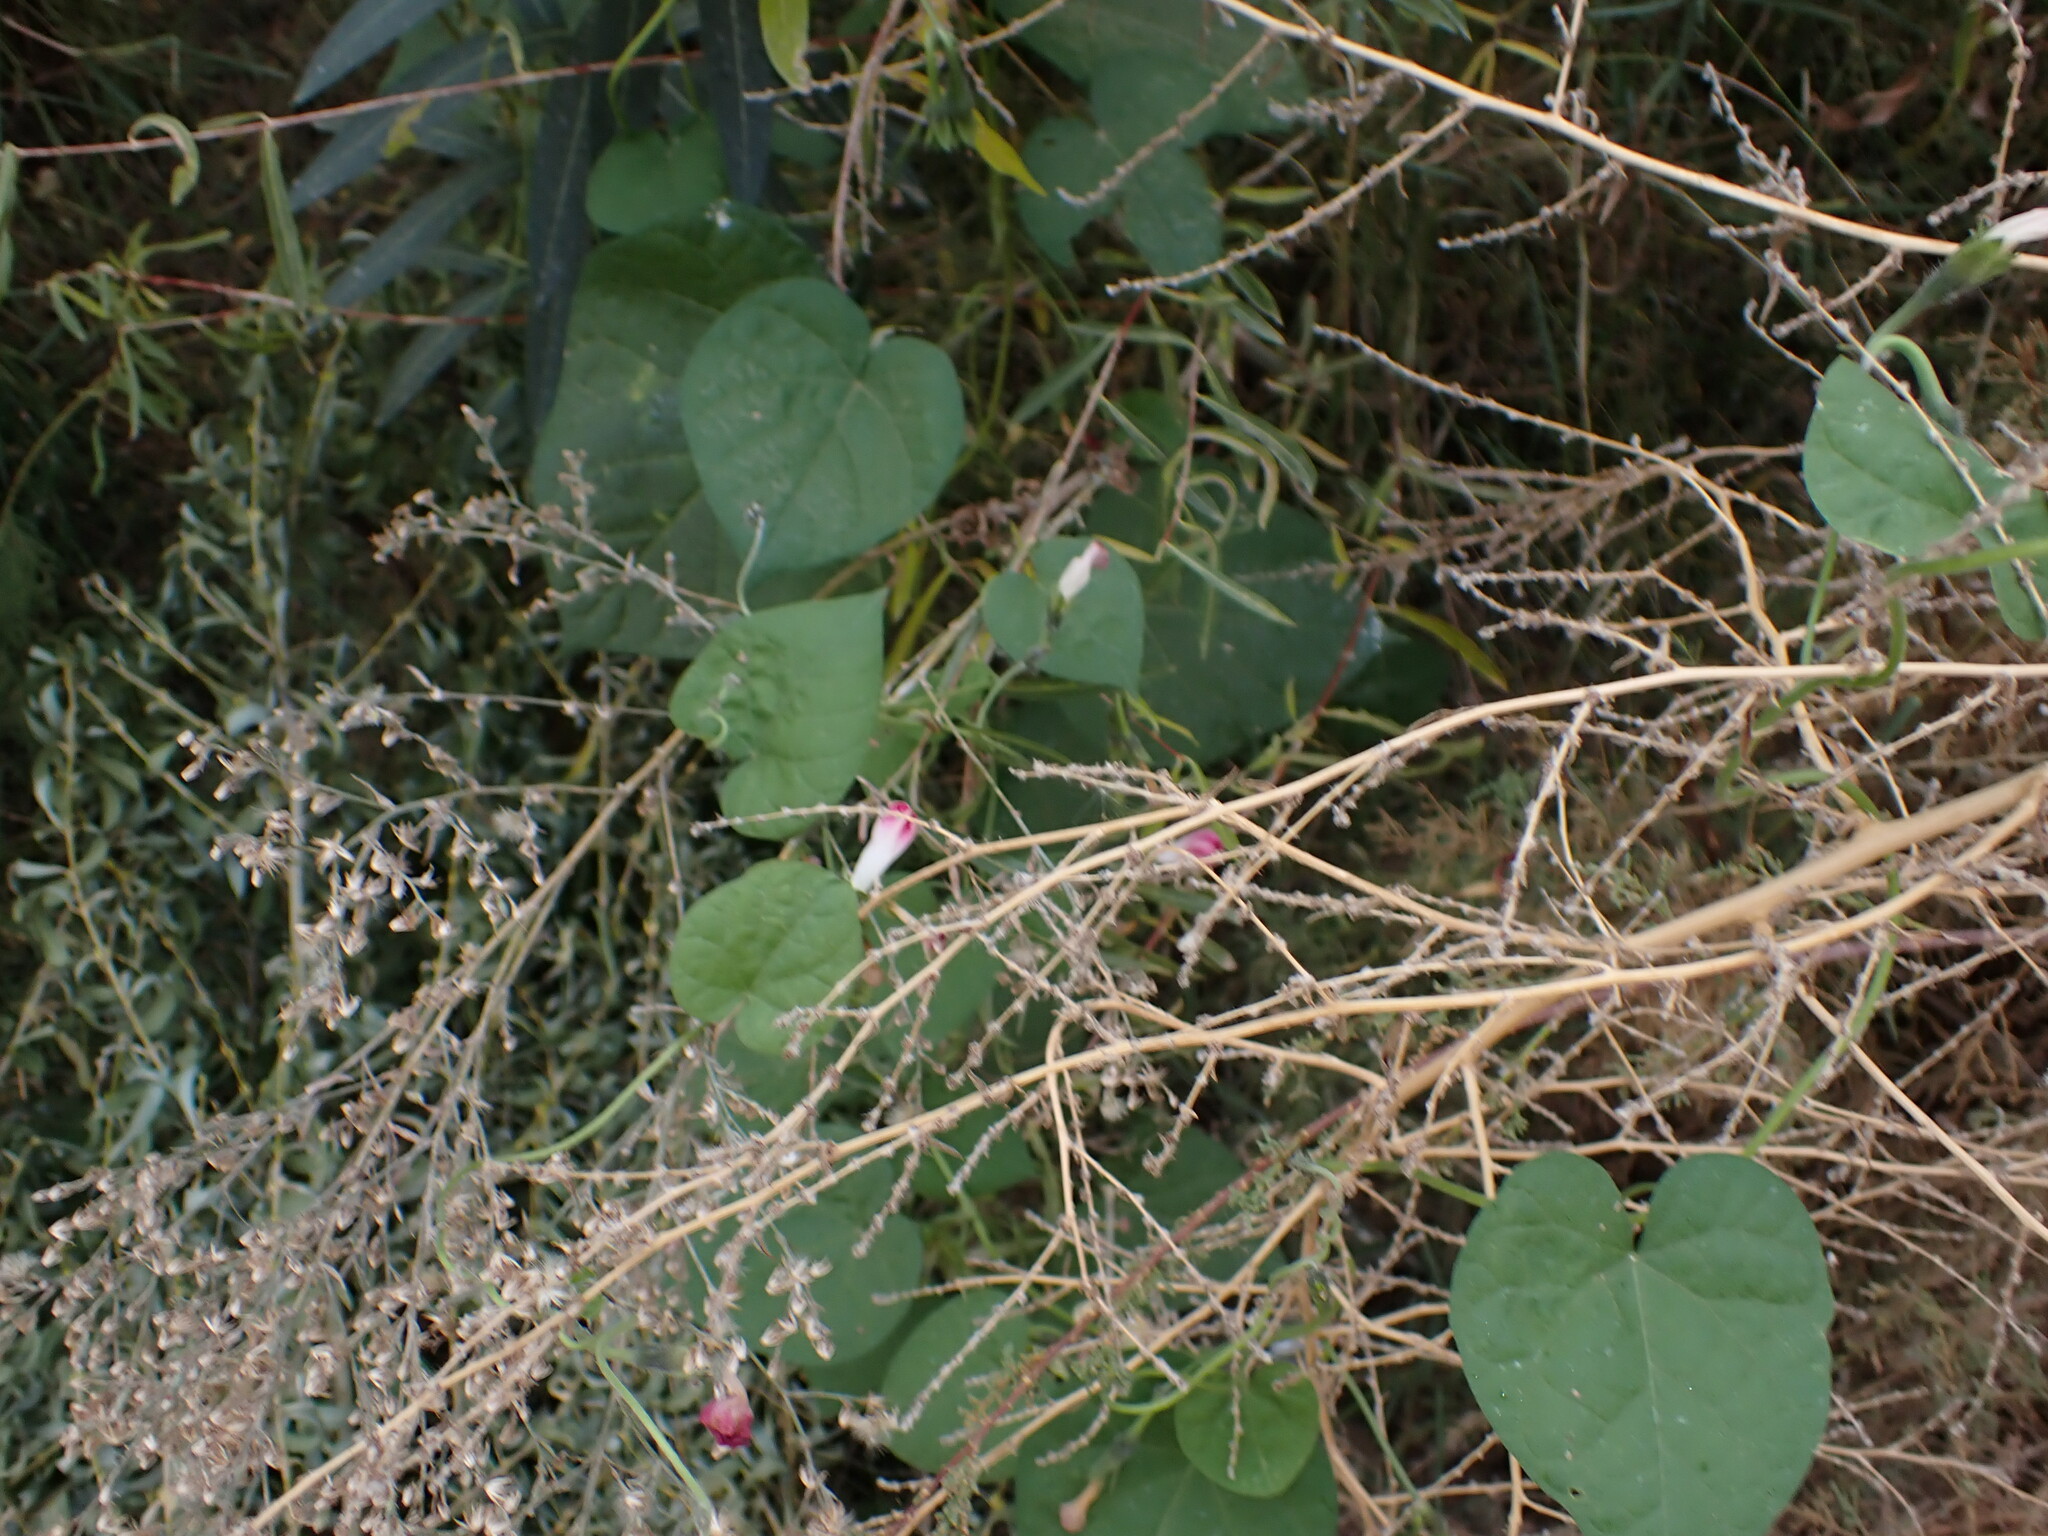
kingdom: Plantae
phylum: Tracheophyta
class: Magnoliopsida
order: Solanales
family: Convolvulaceae
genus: Ipomoea
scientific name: Ipomoea purpurea
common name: Common morning-glory
